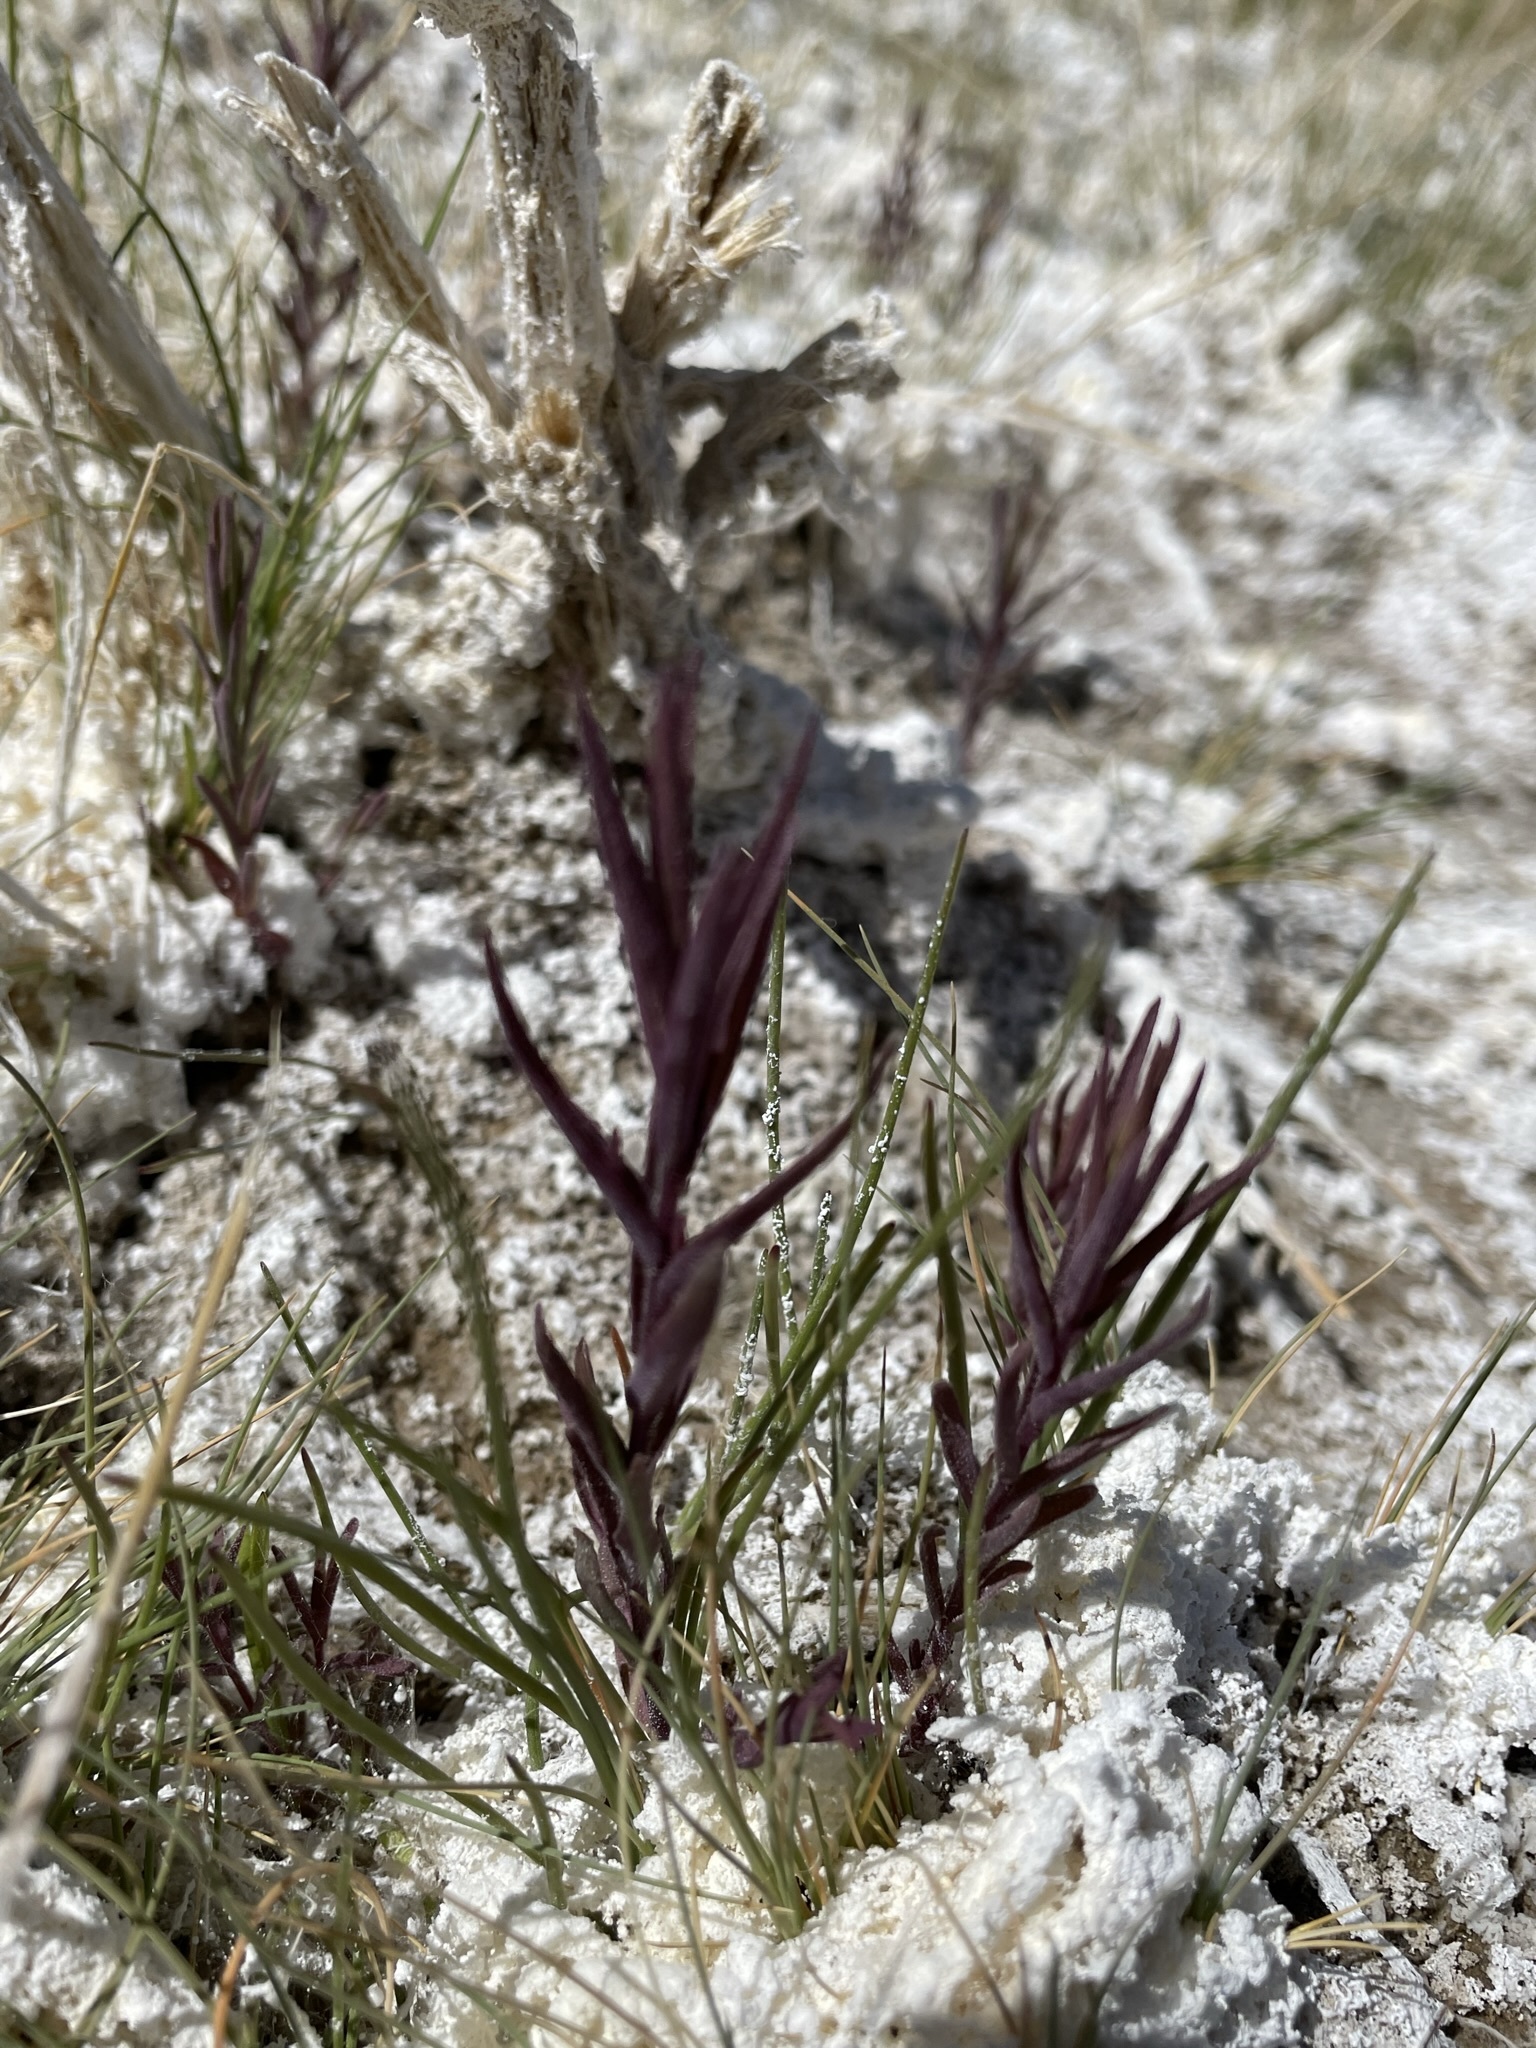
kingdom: Plantae
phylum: Tracheophyta
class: Magnoliopsida
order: Lamiales
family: Orobanchaceae
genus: Chloropyron
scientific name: Chloropyron maritimum
